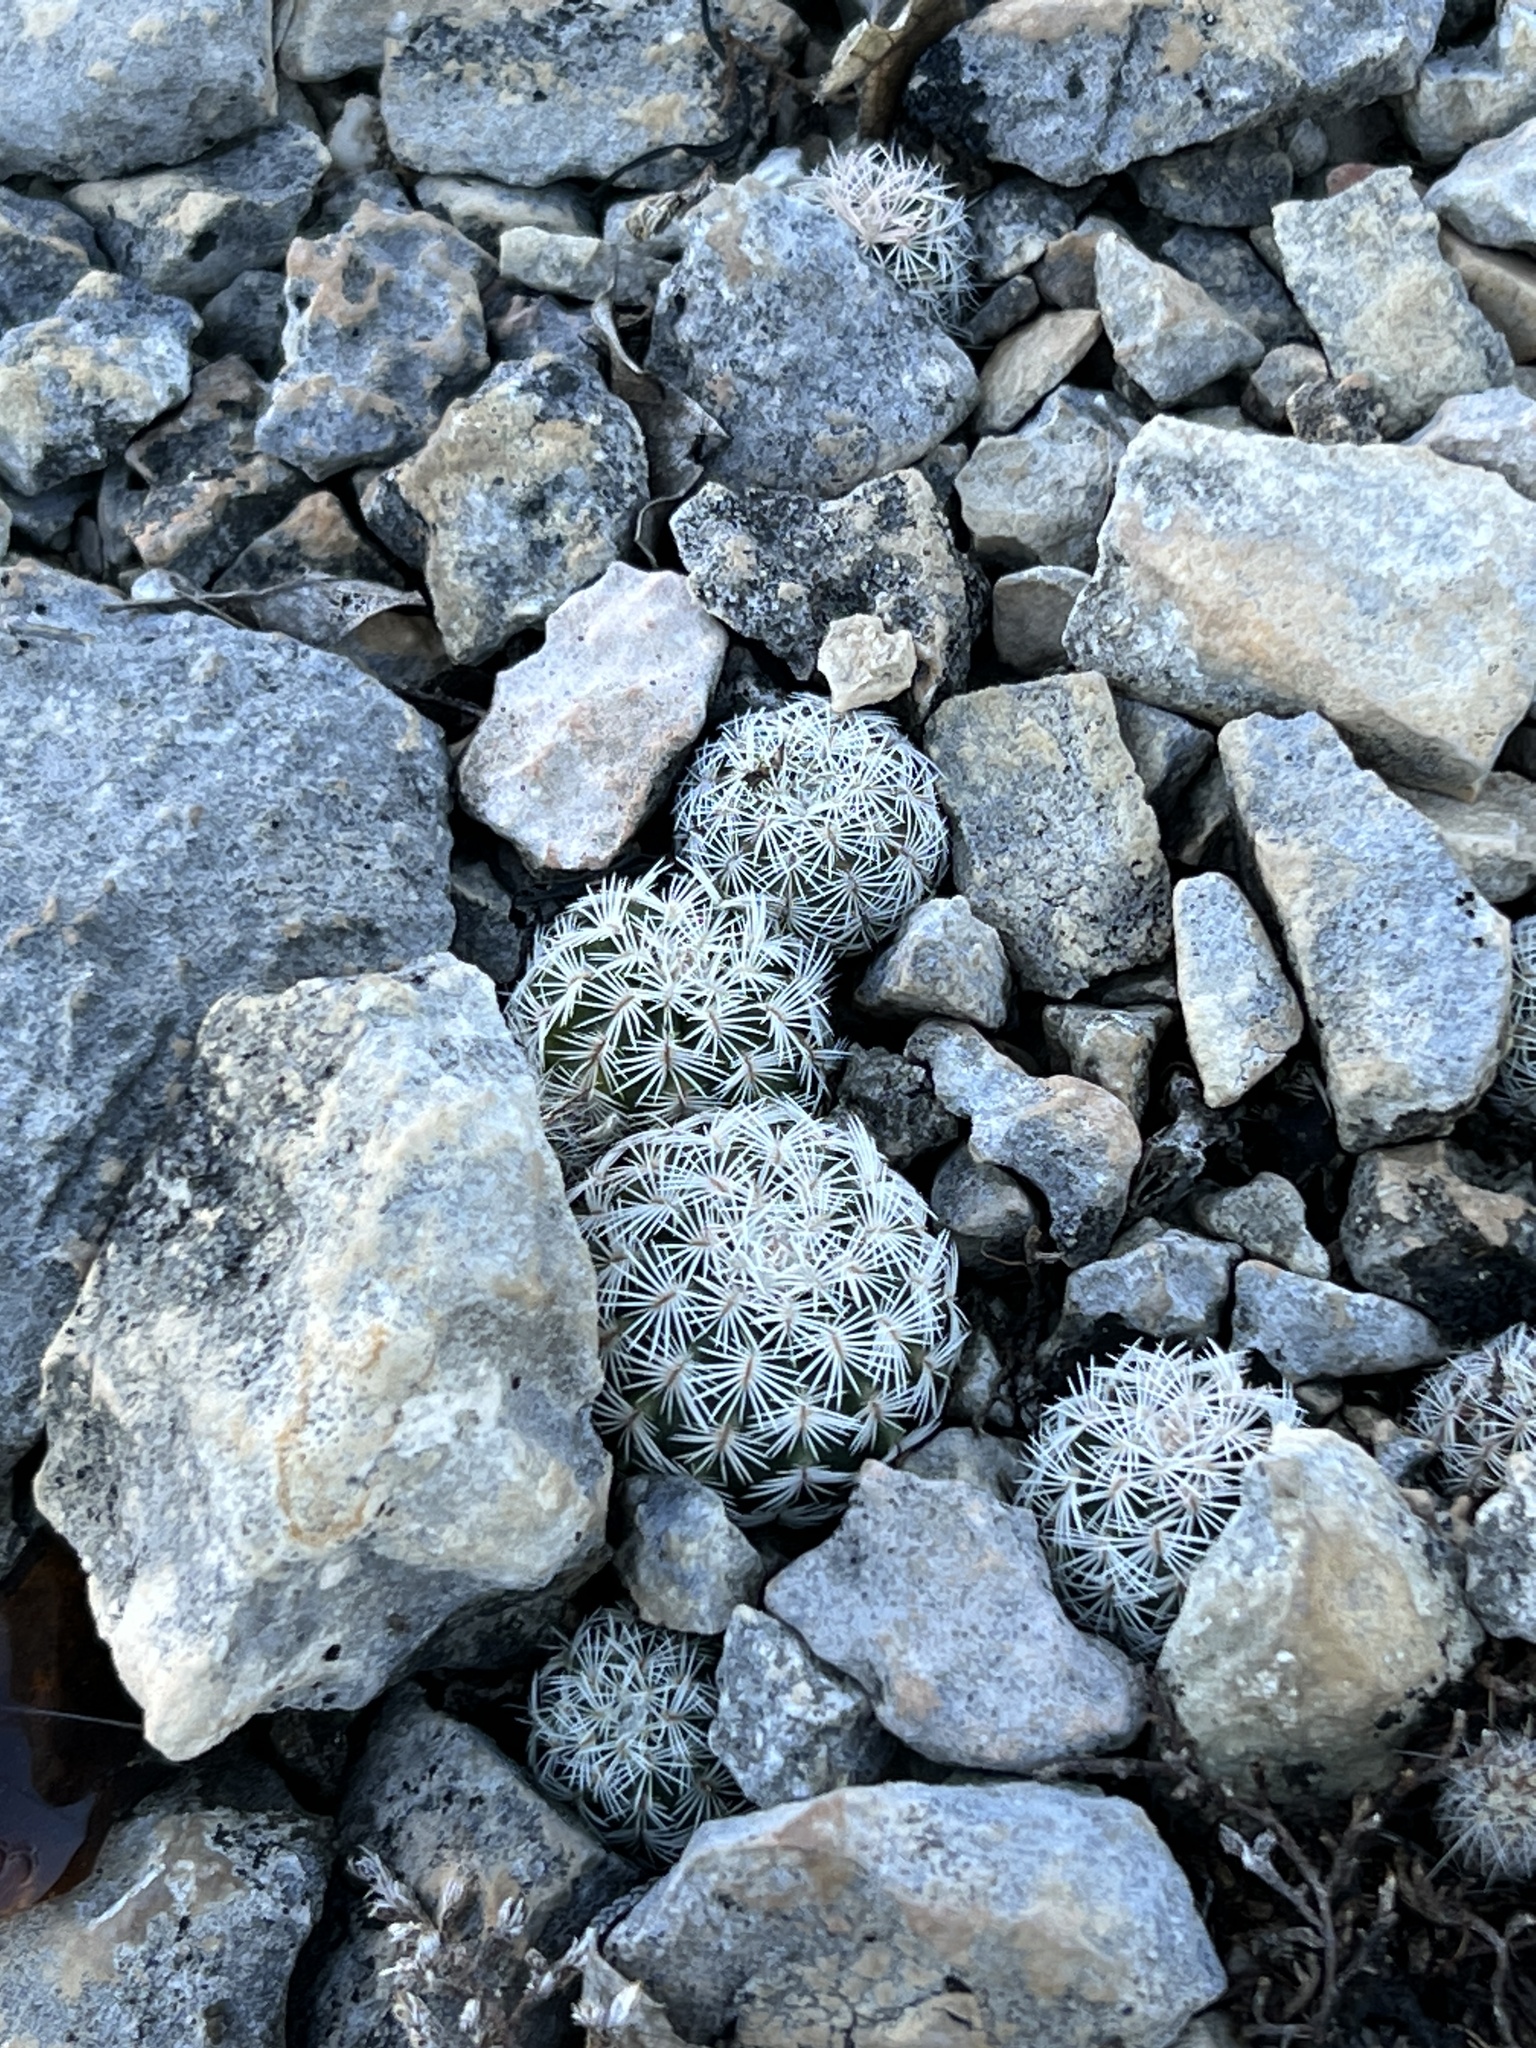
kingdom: Plantae
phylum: Tracheophyta
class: Magnoliopsida
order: Caryophyllales
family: Cactaceae
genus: Echinocereus
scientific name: Echinocereus reichenbachii
